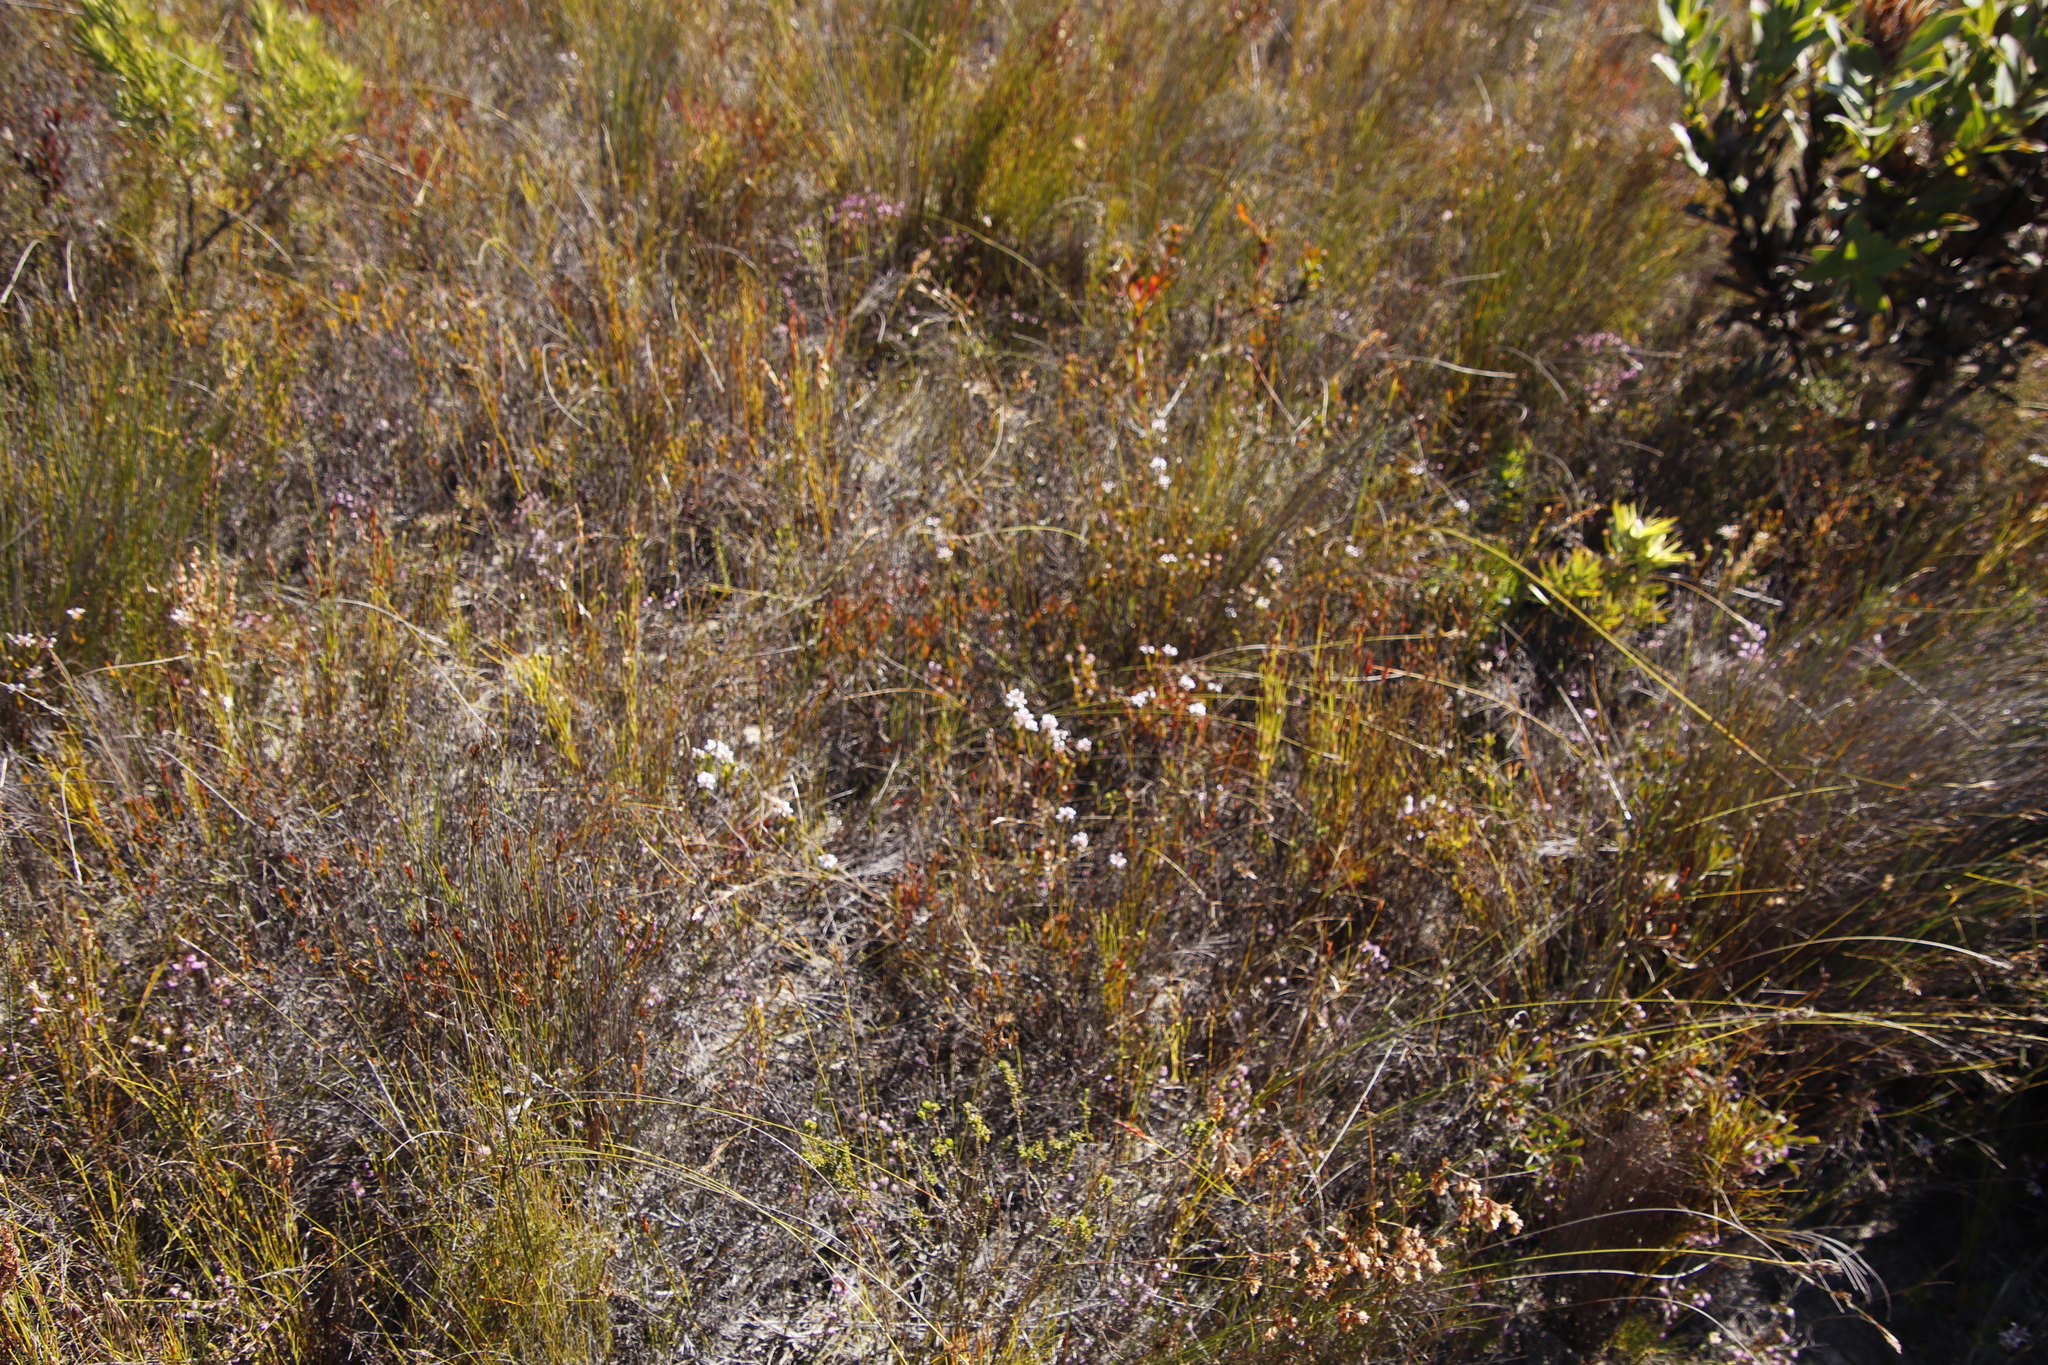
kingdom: Plantae
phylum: Tracheophyta
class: Magnoliopsida
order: Proteales
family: Proteaceae
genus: Spatalla
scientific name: Spatalla squamata
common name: Silky spoon
